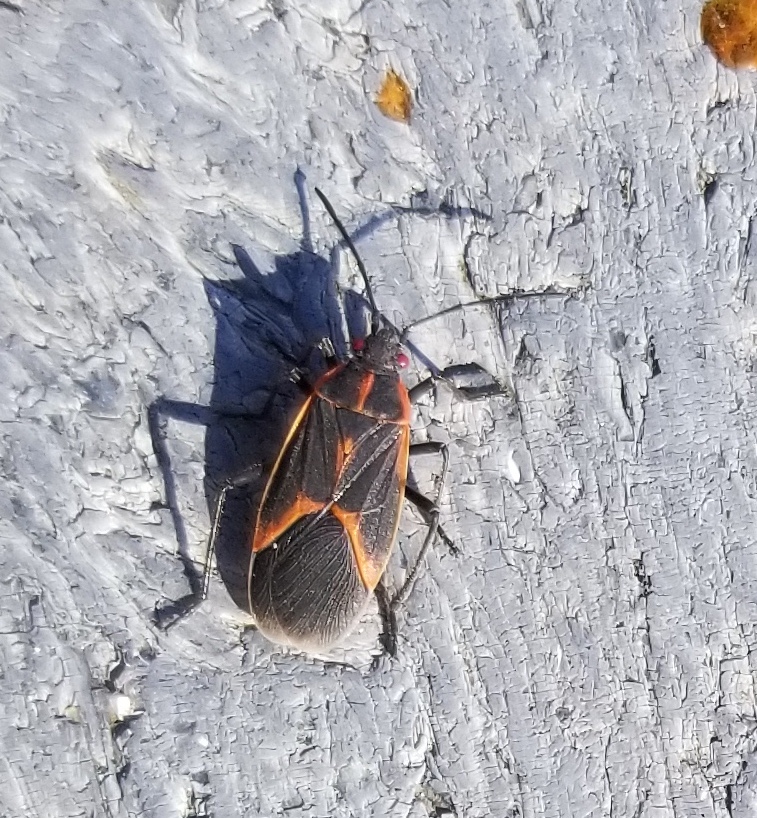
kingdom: Animalia
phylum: Arthropoda
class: Insecta
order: Hemiptera
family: Rhopalidae
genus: Boisea
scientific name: Boisea trivittata
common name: Boxelder bug
